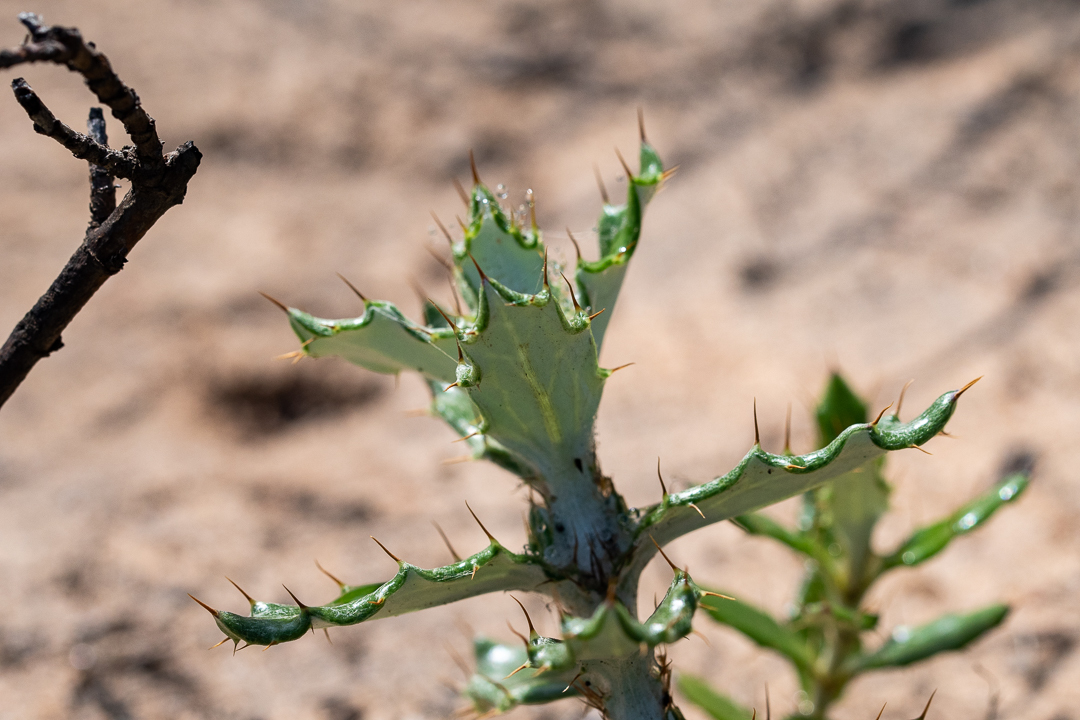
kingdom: Plantae
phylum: Tracheophyta
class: Magnoliopsida
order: Asterales
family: Asteraceae
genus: Berkheya
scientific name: Berkheya barbata
